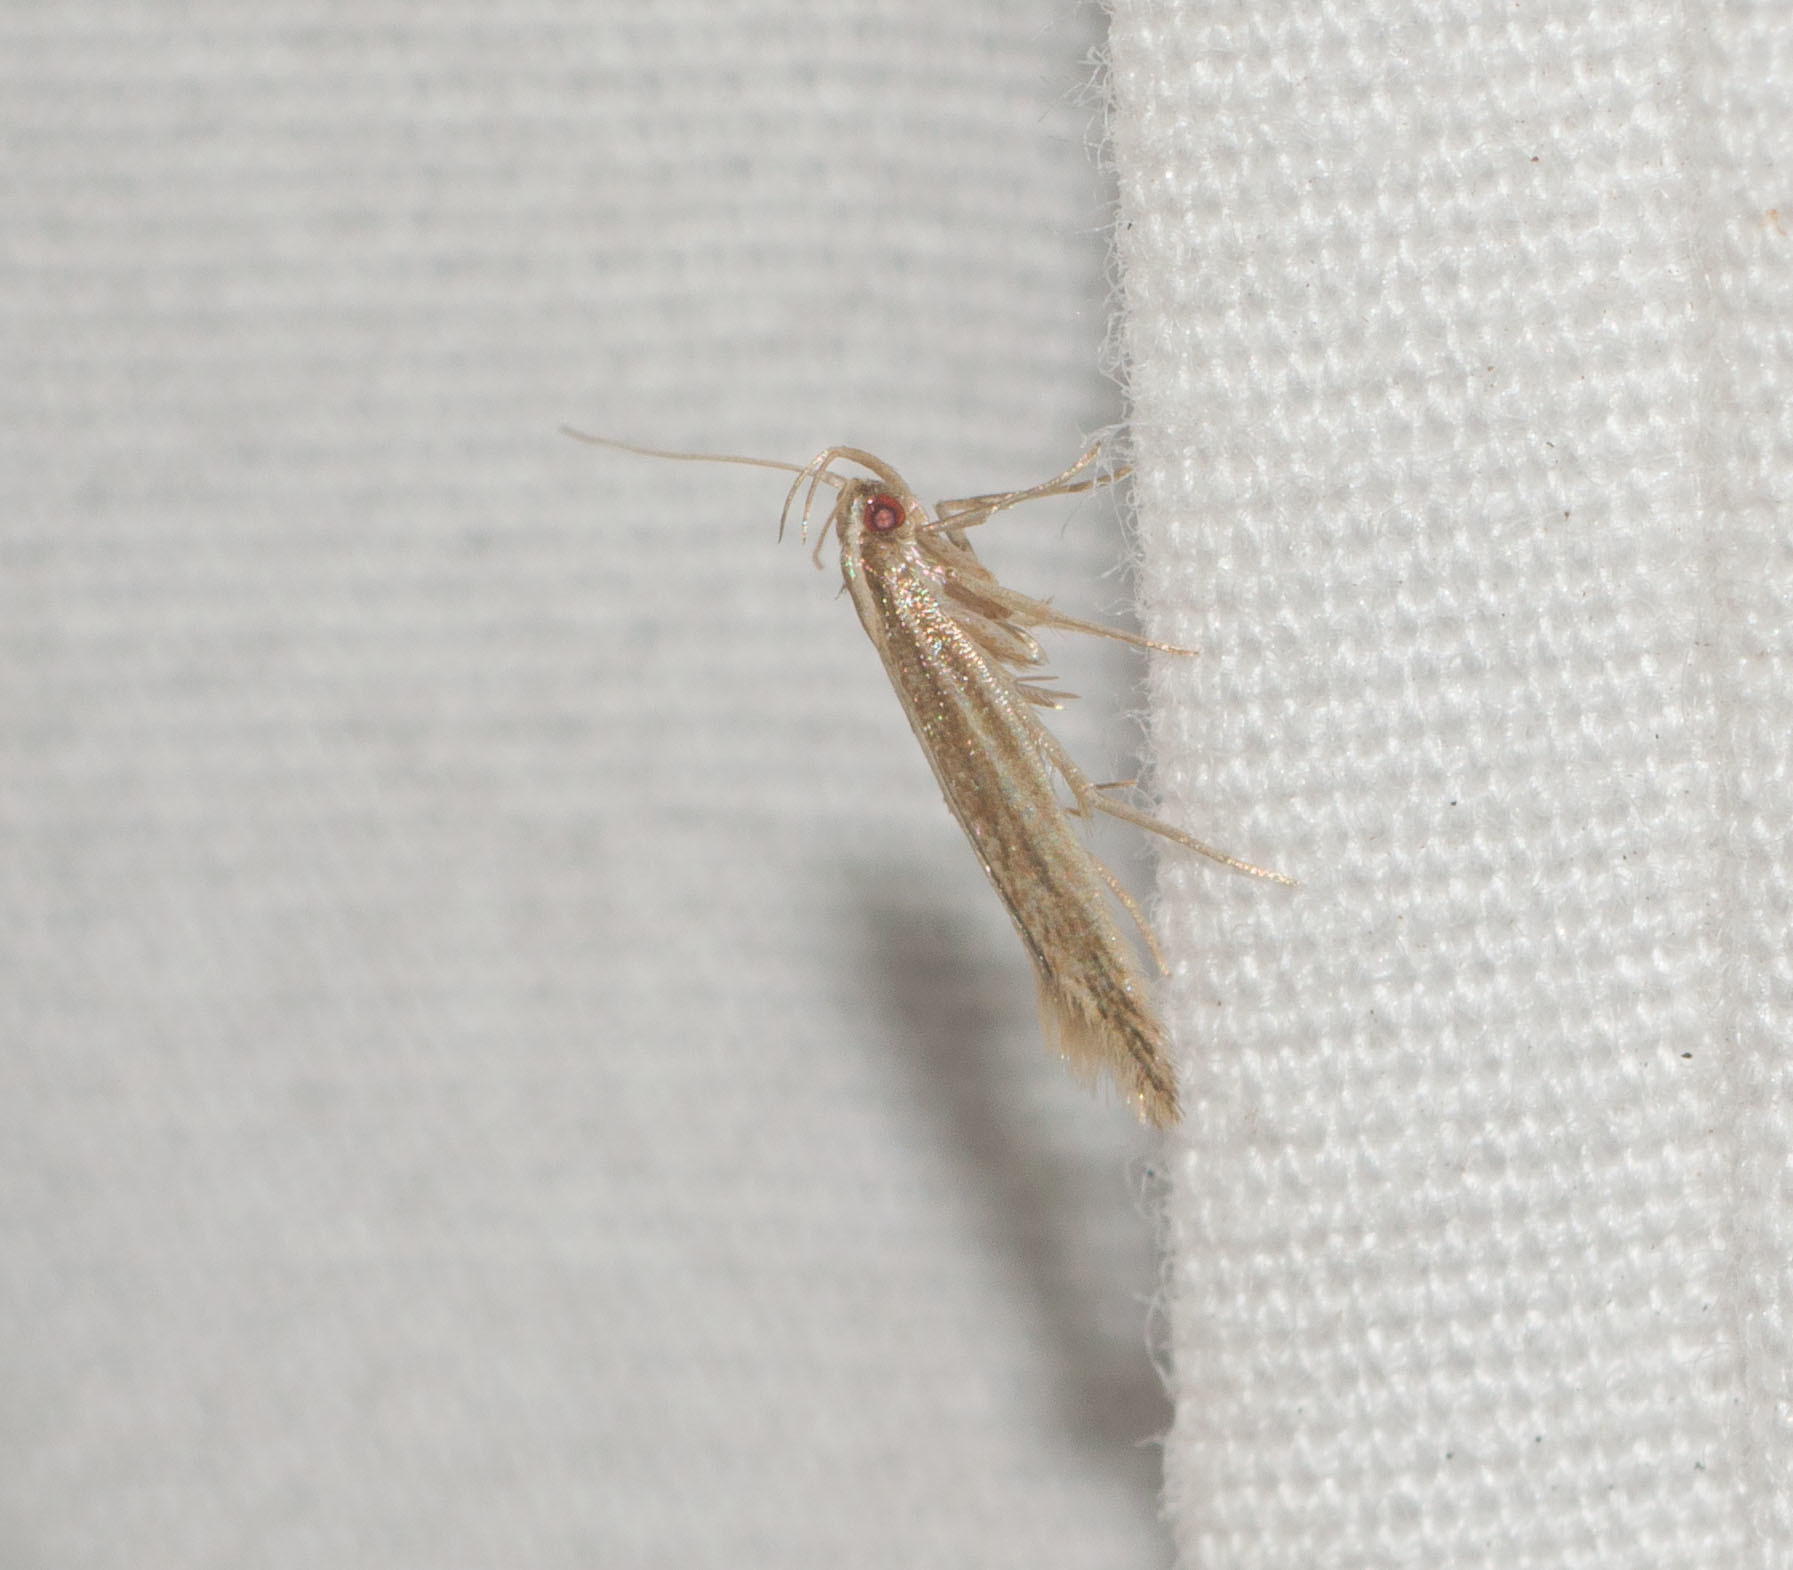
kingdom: Animalia
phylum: Arthropoda
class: Insecta
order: Lepidoptera
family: Cosmopterigidae
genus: Asymphorodes
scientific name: Asymphorodes
